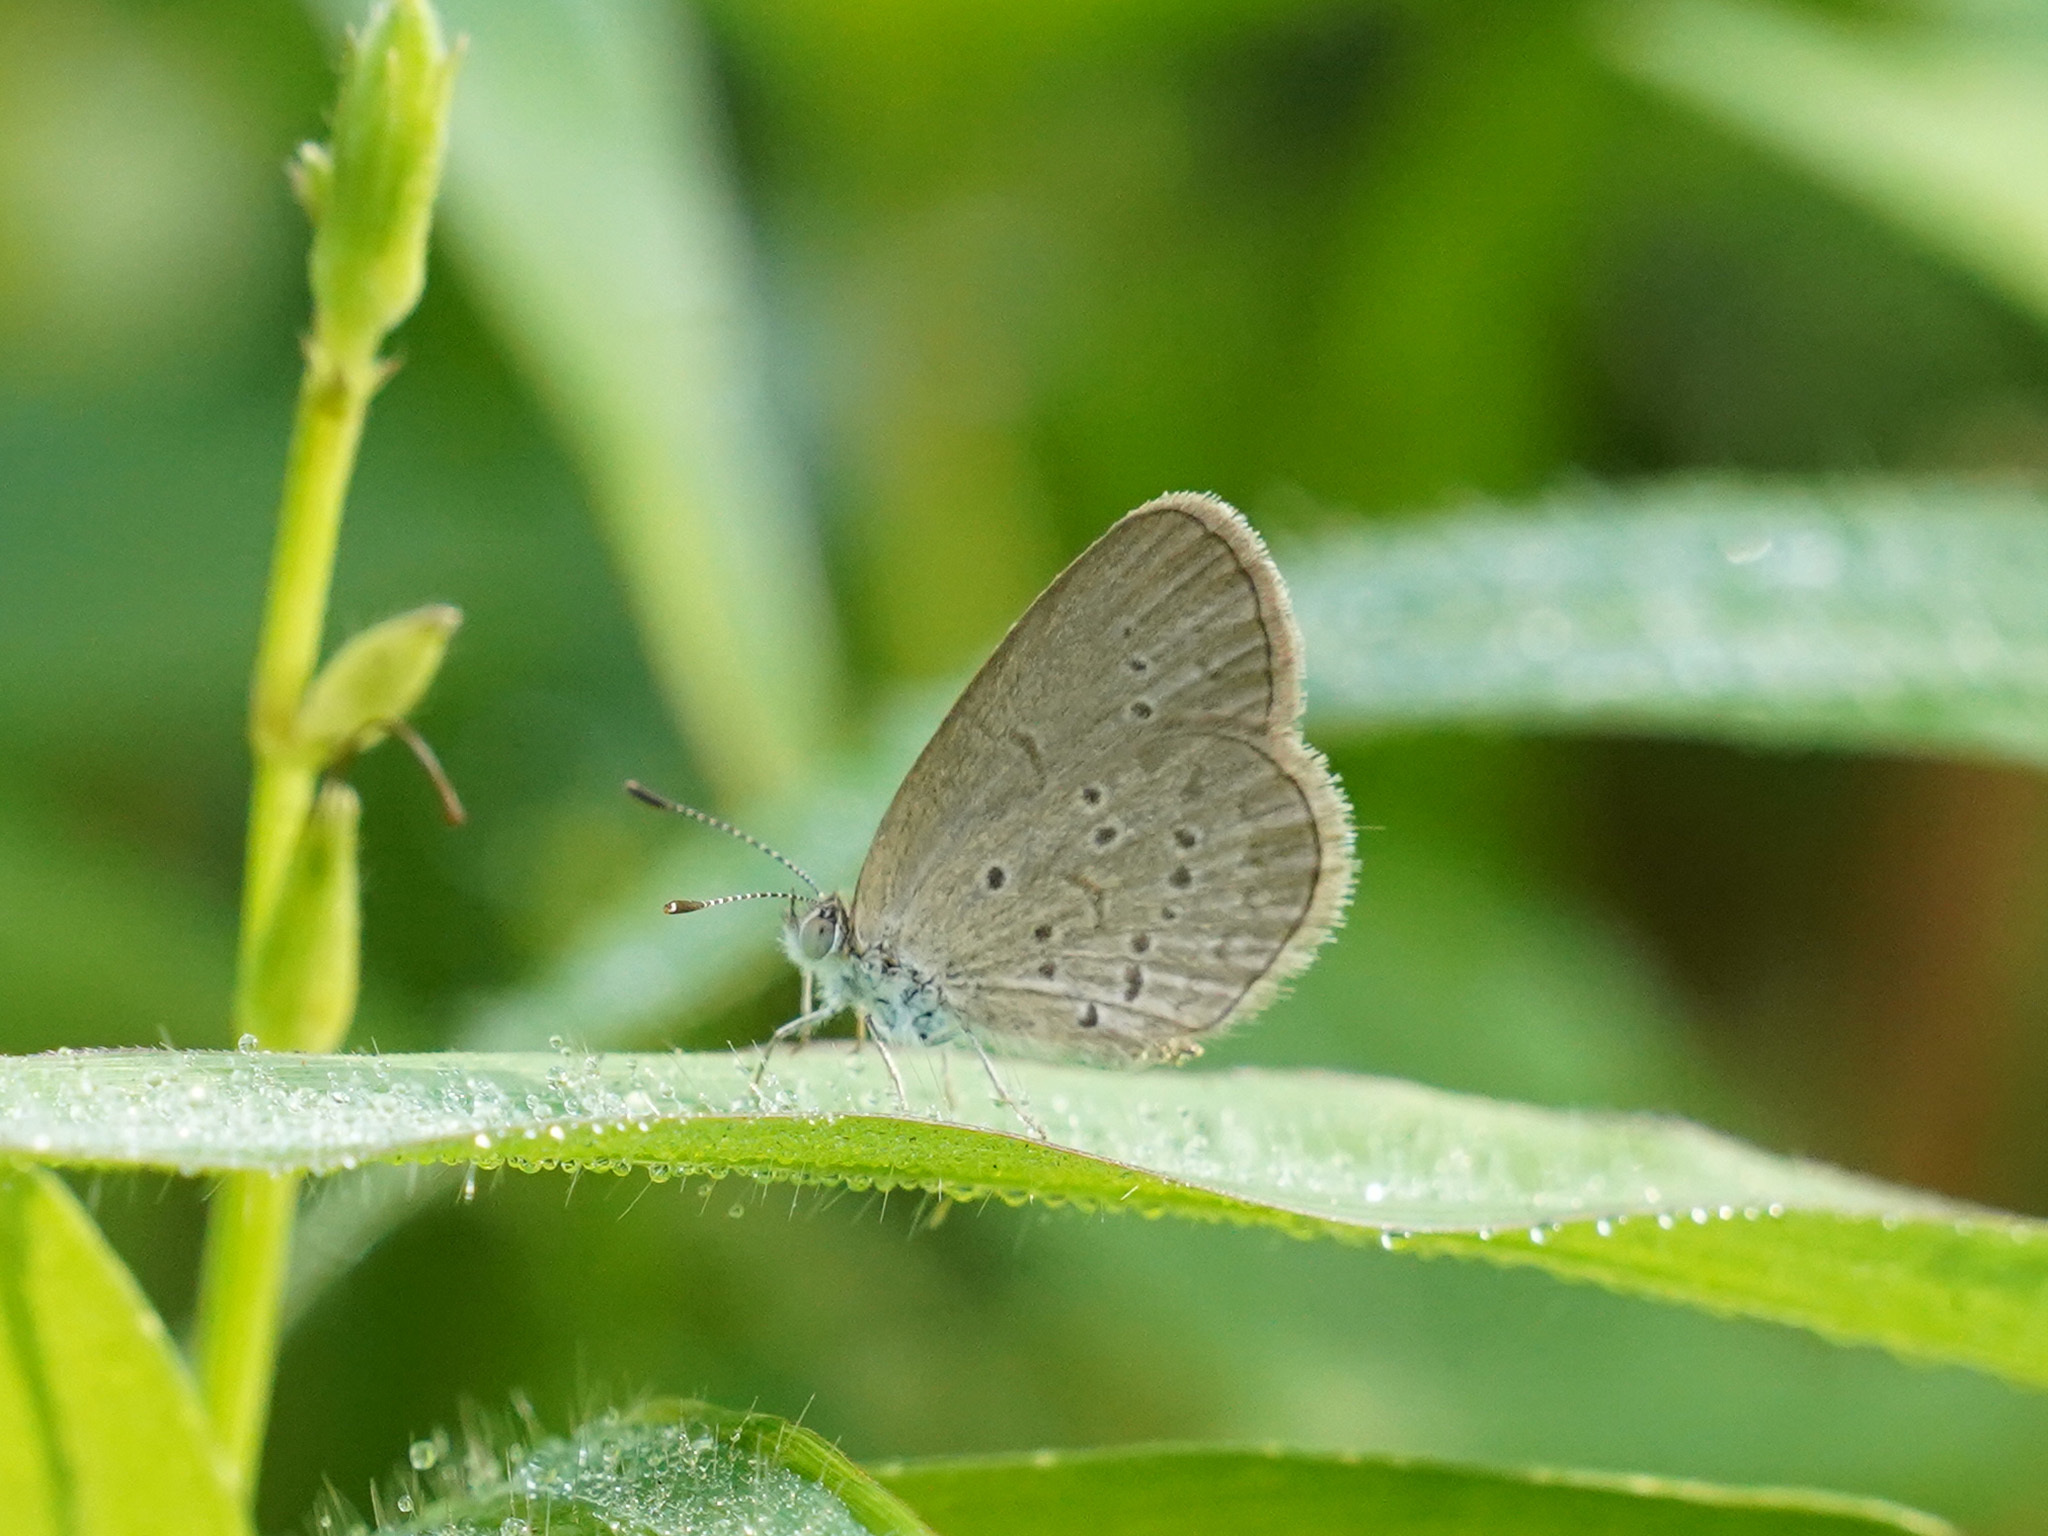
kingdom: Animalia
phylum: Arthropoda
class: Insecta
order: Lepidoptera
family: Lycaenidae
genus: Zizina
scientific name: Zizina otis
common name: Lesser grass blue
